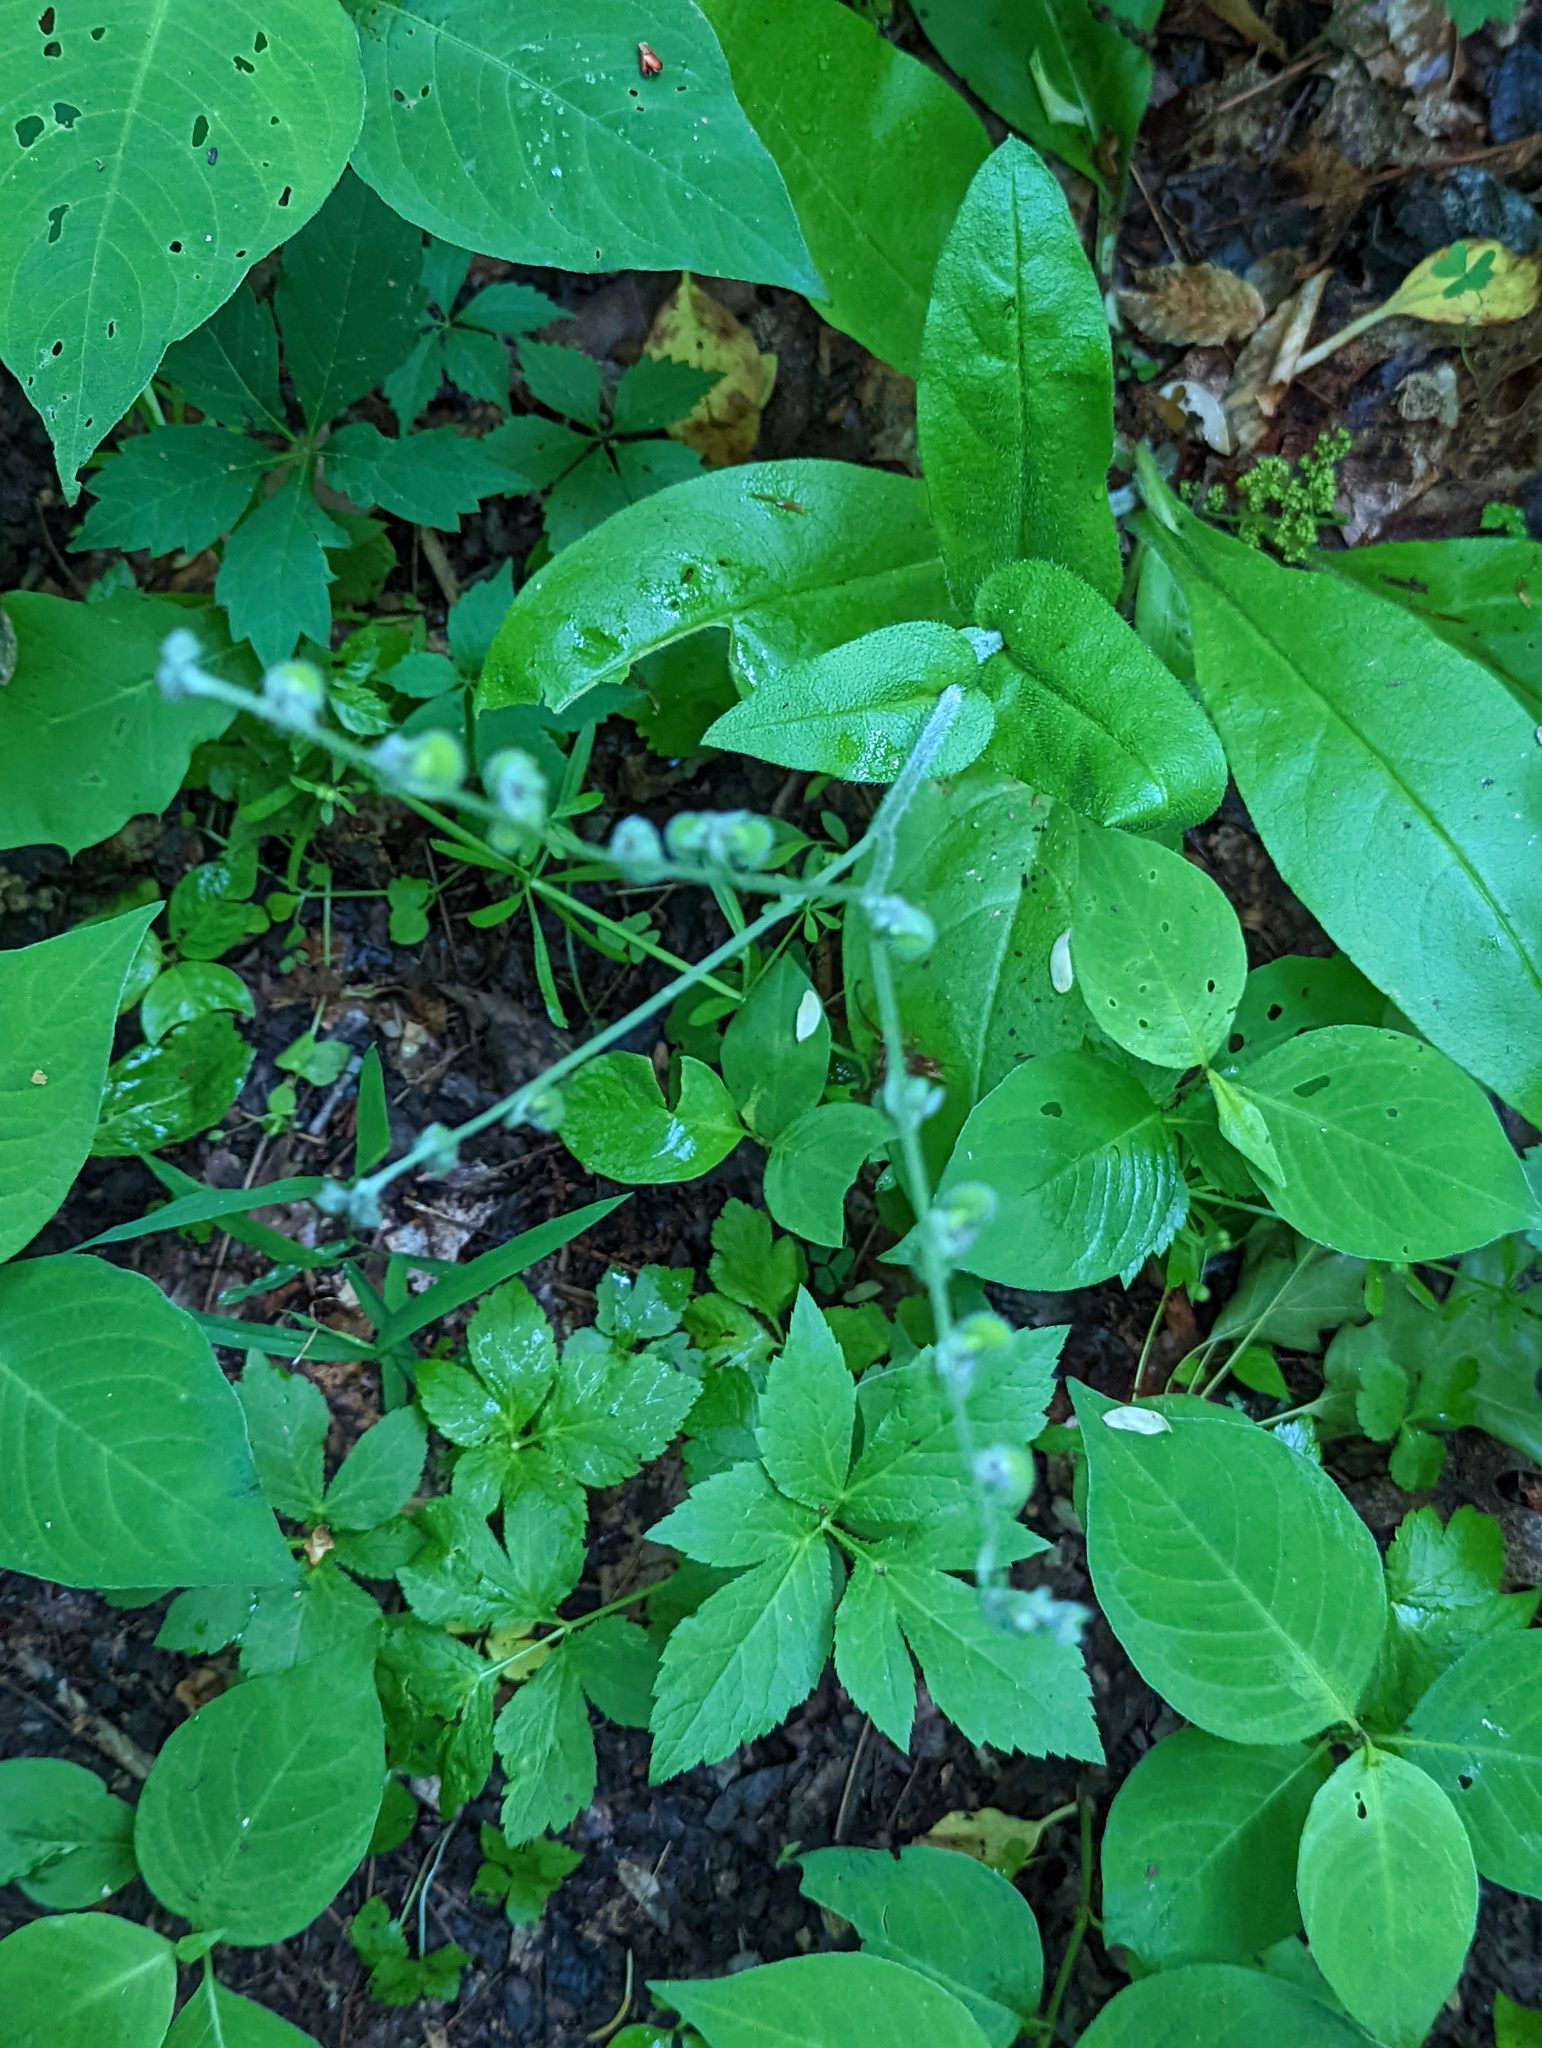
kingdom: Plantae
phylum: Tracheophyta
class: Magnoliopsida
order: Boraginales
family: Boraginaceae
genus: Andersonglossum
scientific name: Andersonglossum virginianum
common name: Wild comfrey
